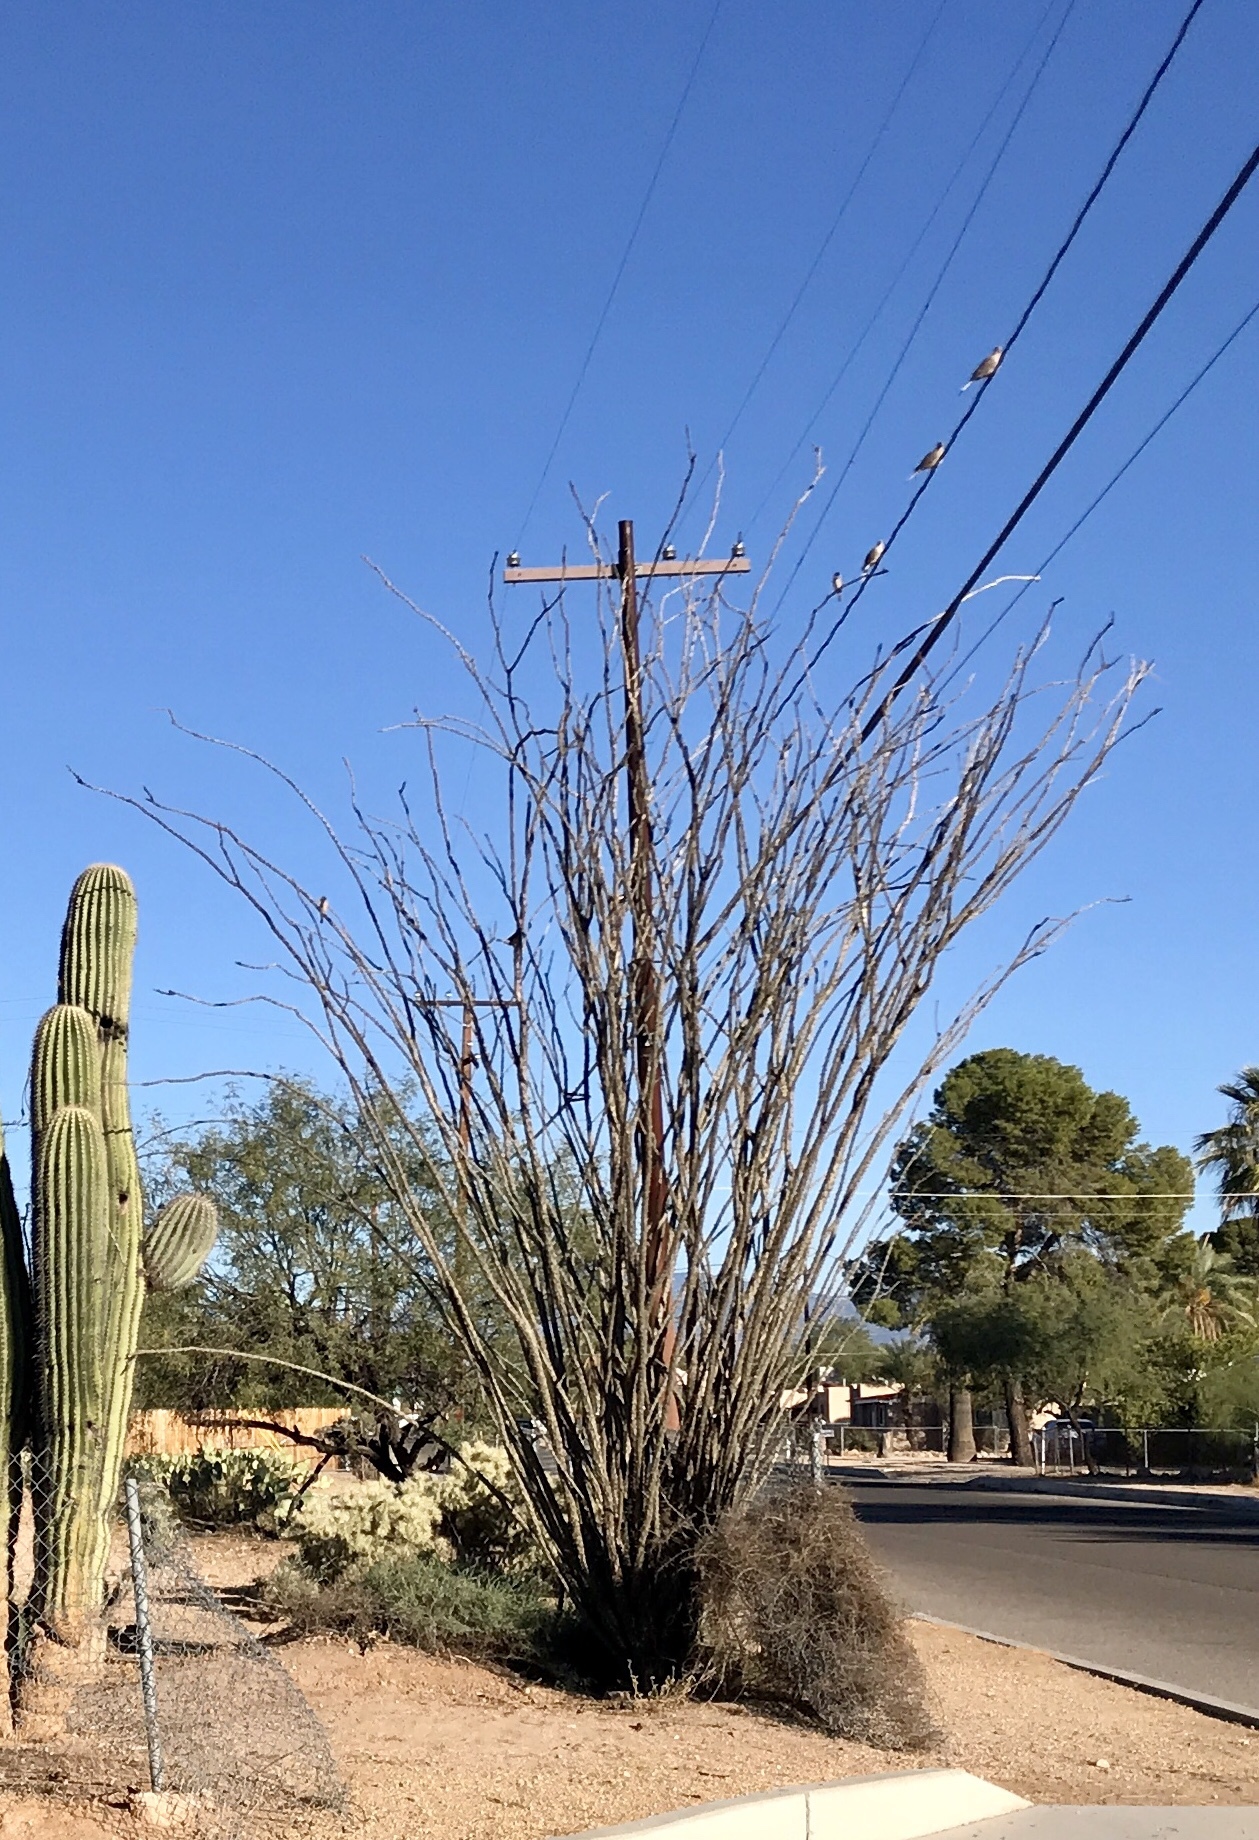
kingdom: Plantae
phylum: Tracheophyta
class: Magnoliopsida
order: Ericales
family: Fouquieriaceae
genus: Fouquieria
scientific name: Fouquieria splendens
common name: Vine-cactus
